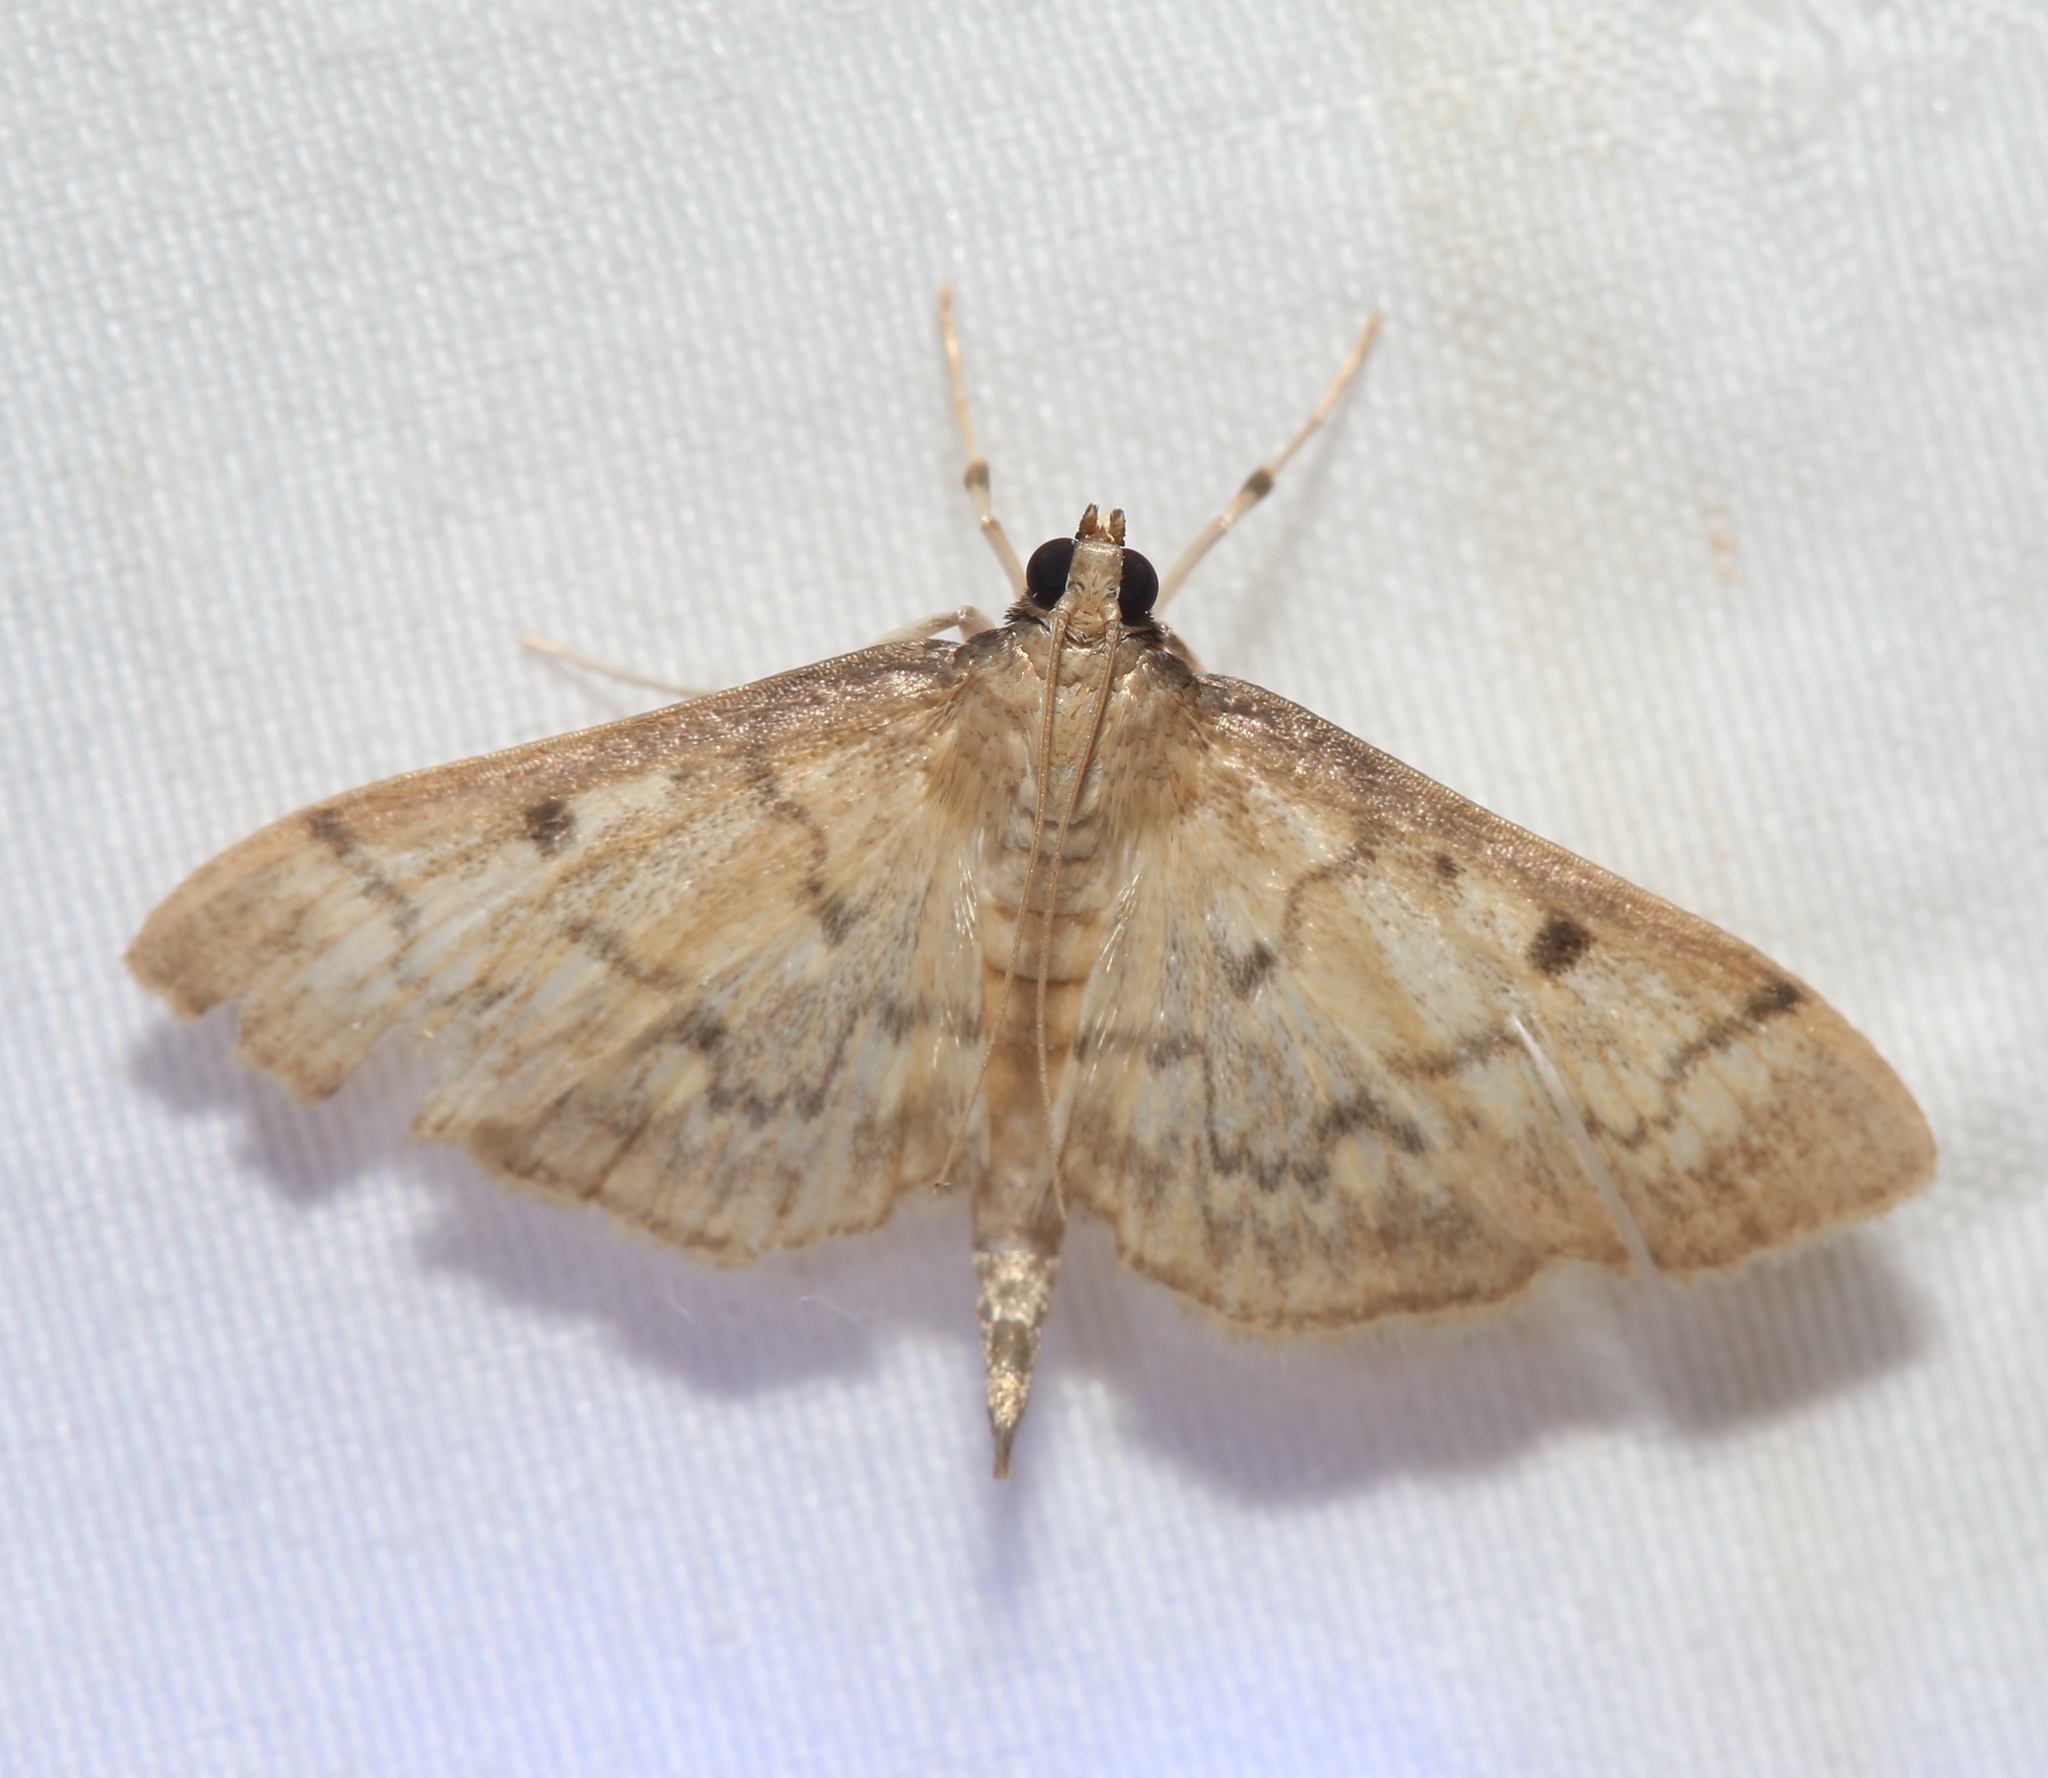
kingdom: Animalia
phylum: Arthropoda
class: Insecta
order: Lepidoptera
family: Crambidae
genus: Herpetogramma
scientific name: Herpetogramma fluctuosalis
